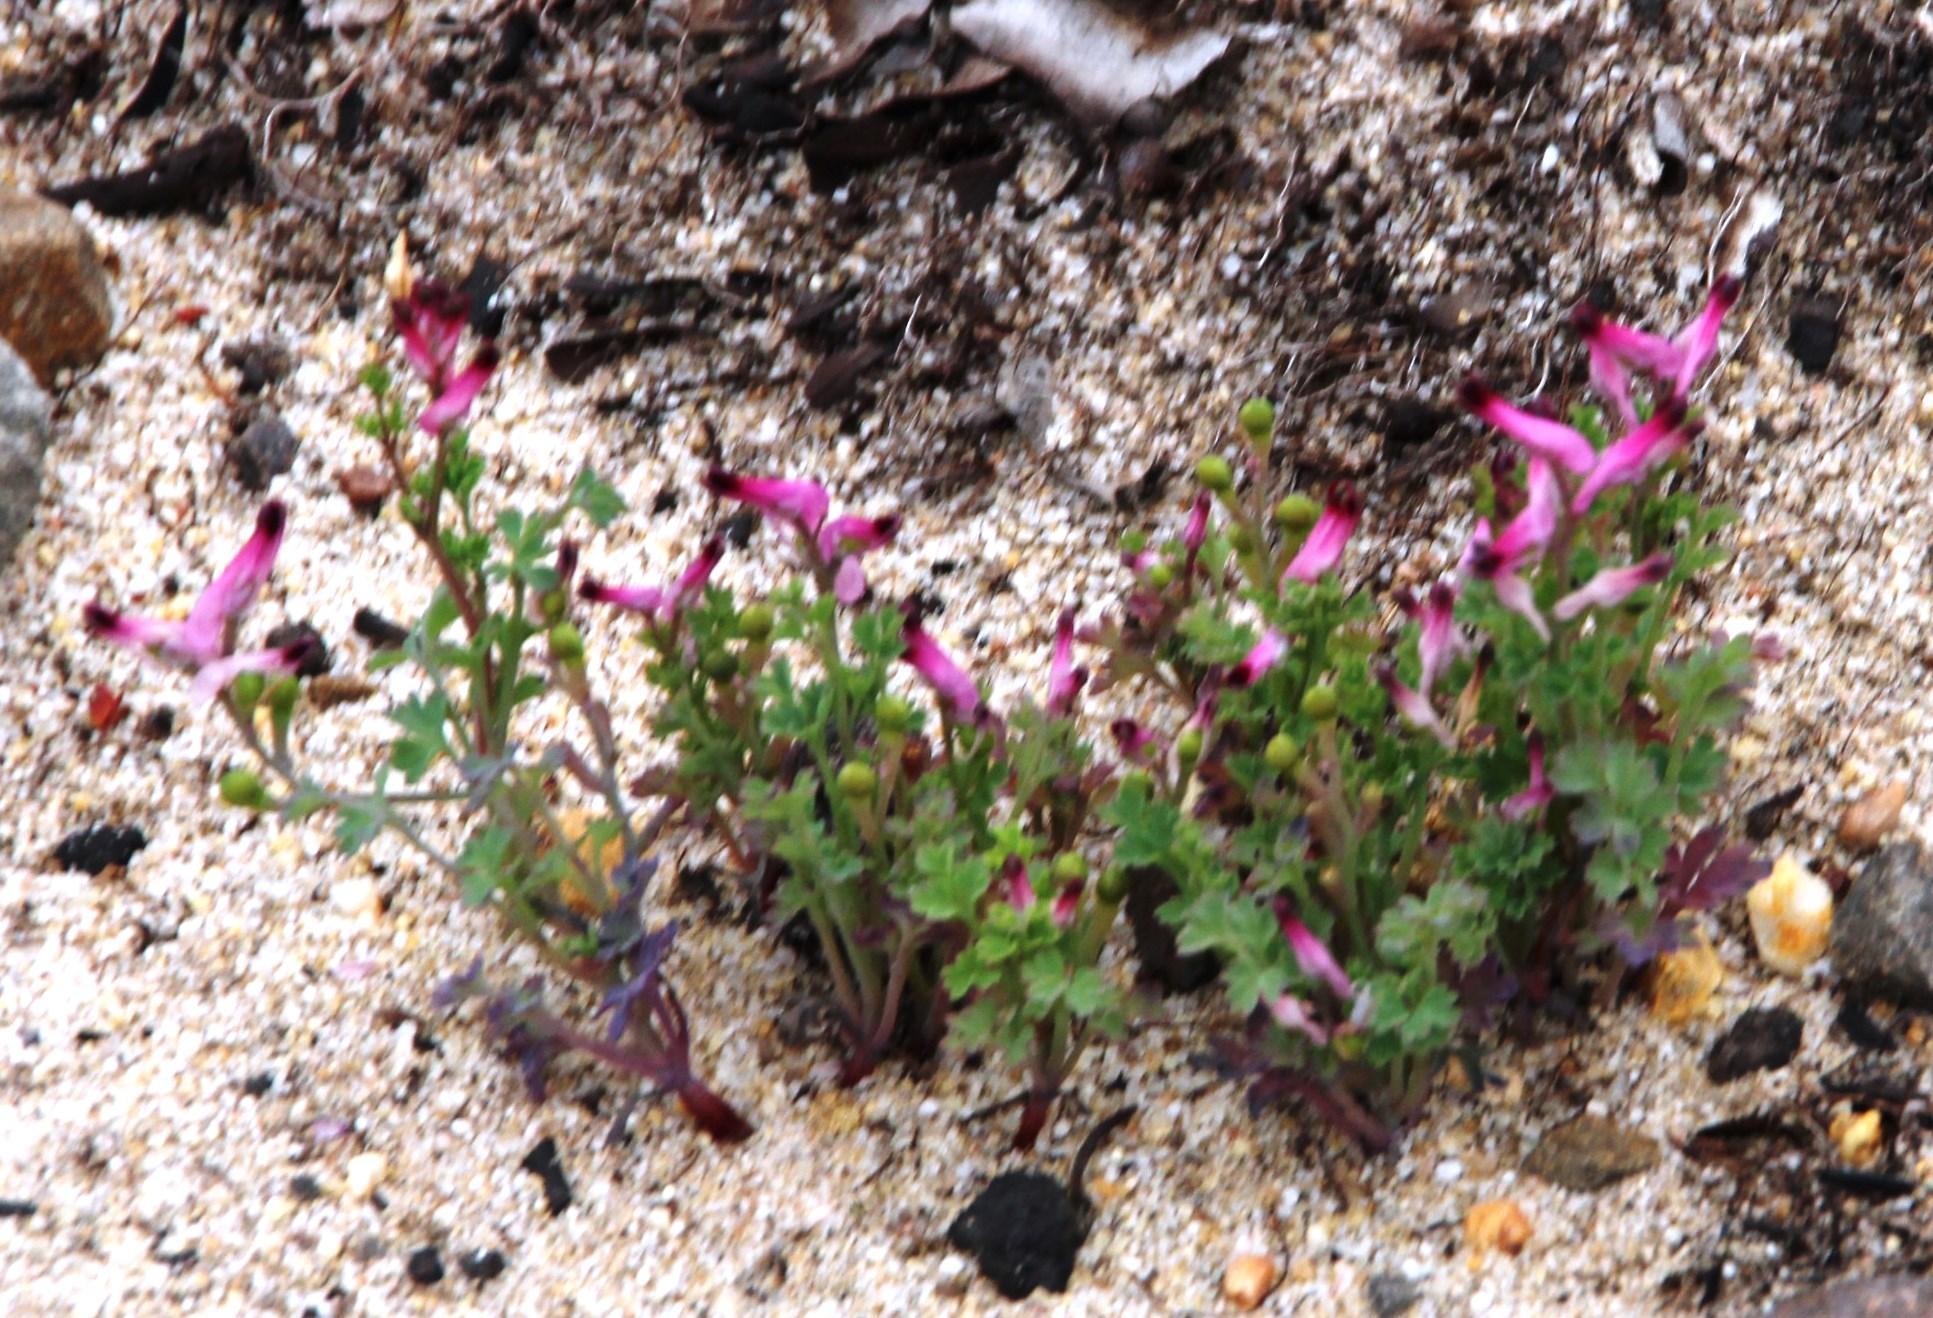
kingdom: Plantae
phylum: Tracheophyta
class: Magnoliopsida
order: Ranunculales
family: Papaveraceae
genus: Fumaria
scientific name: Fumaria muralis
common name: Common ramping-fumitory
